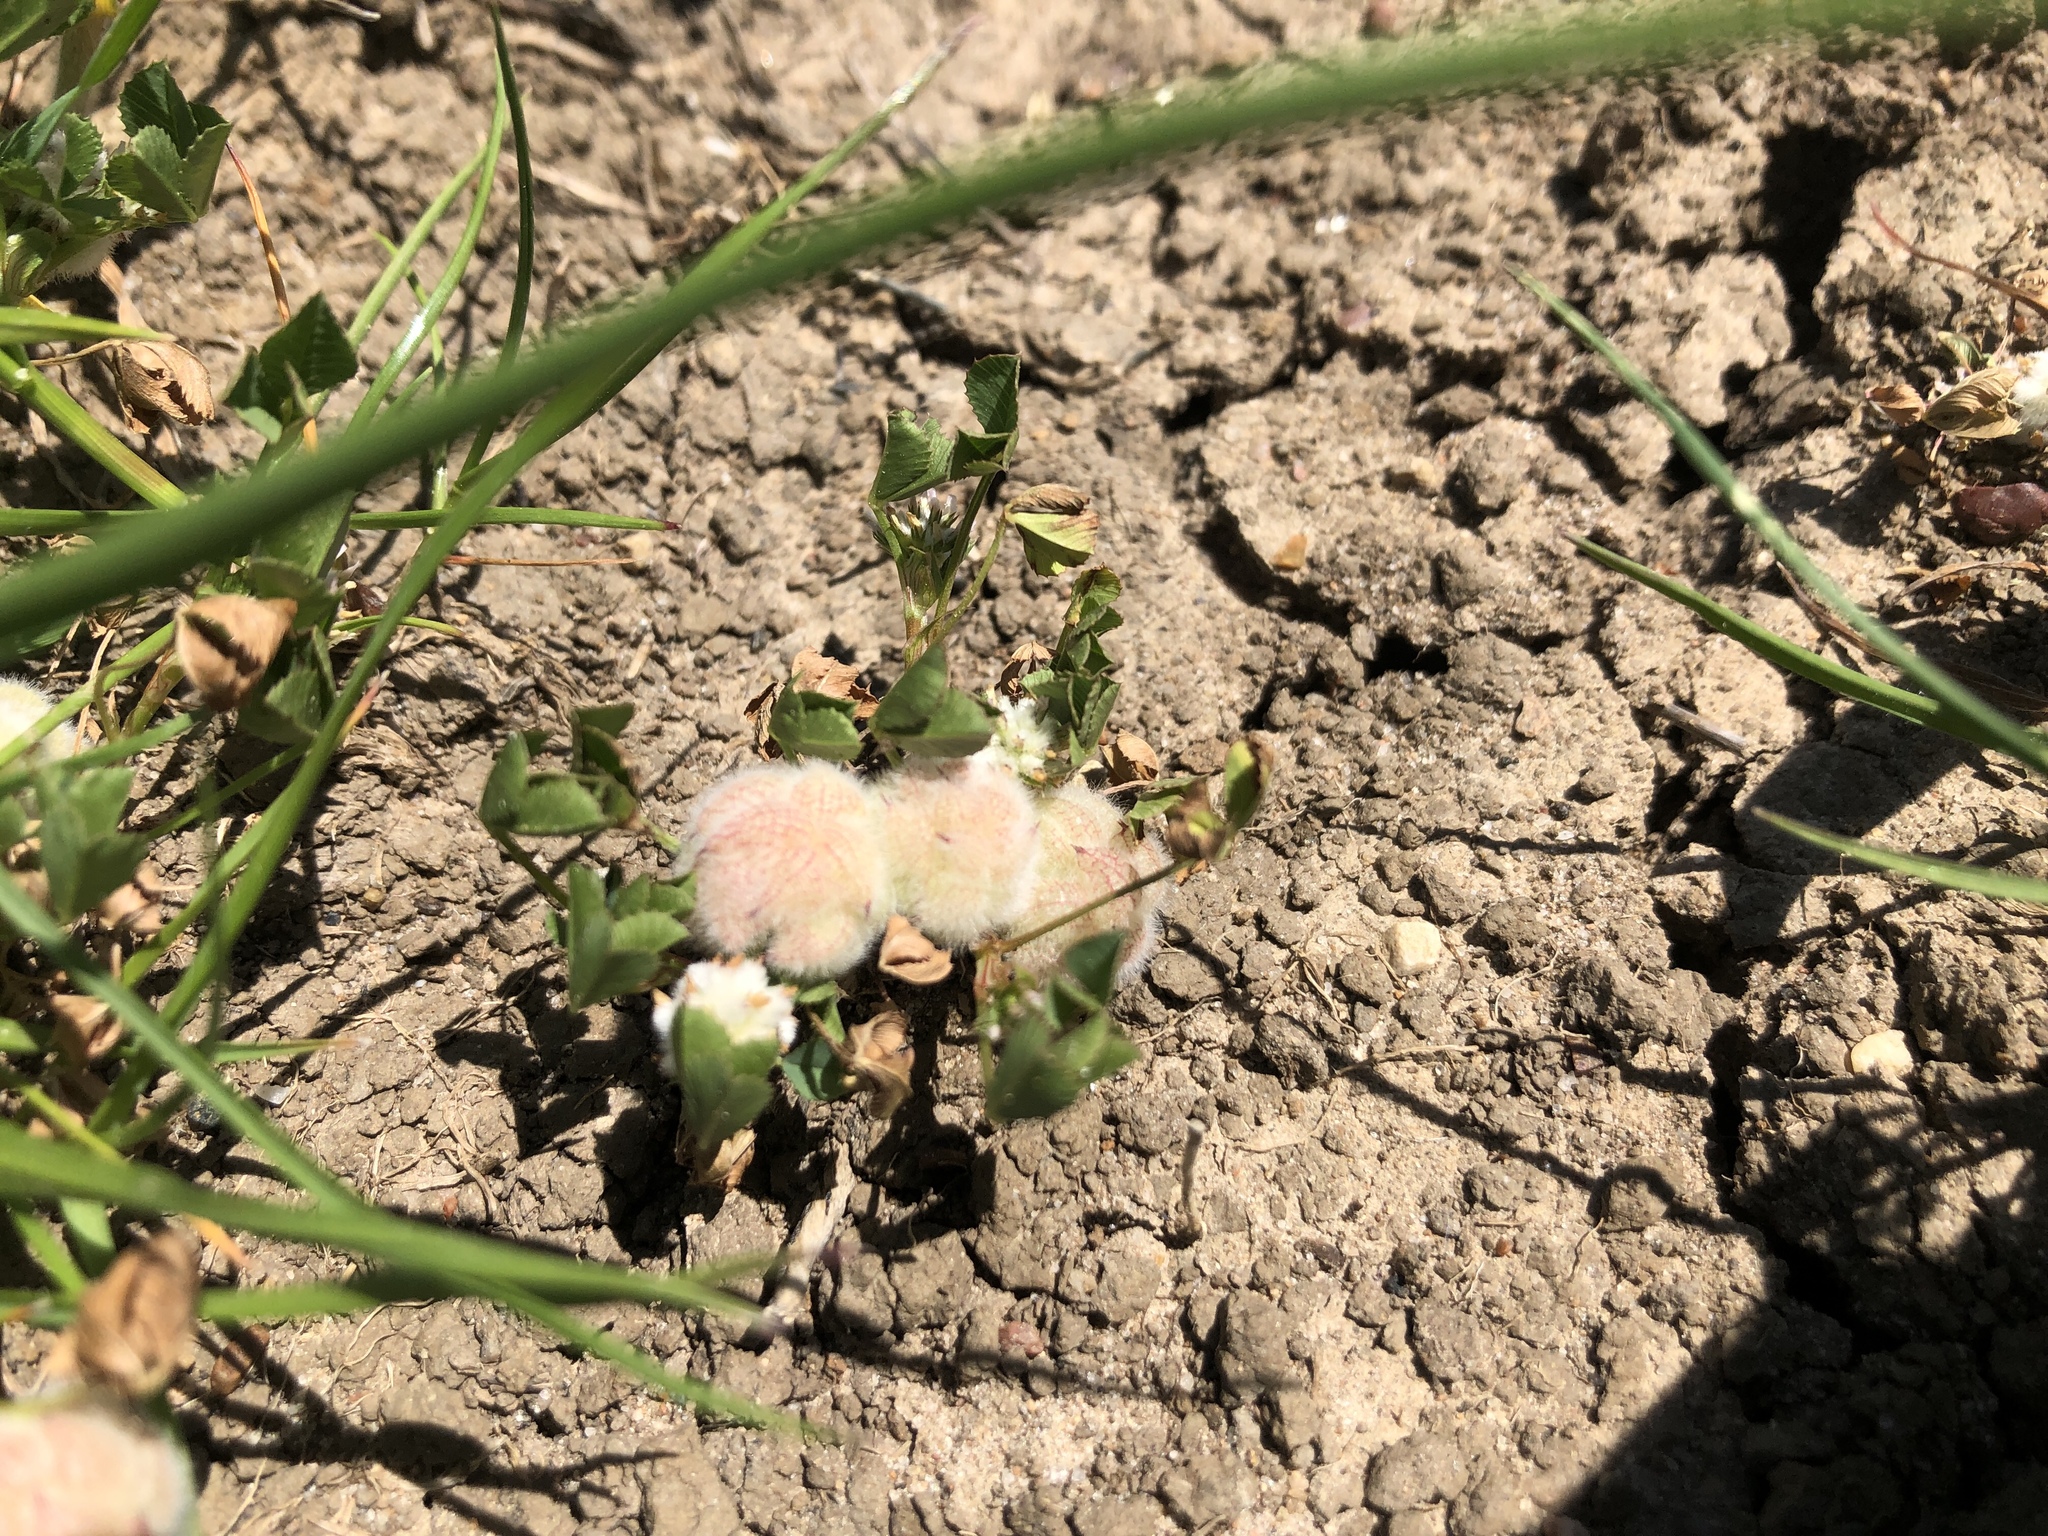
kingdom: Plantae
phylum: Tracheophyta
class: Magnoliopsida
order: Fabales
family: Fabaceae
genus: Trifolium
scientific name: Trifolium tomentosum
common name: Woolly clover
